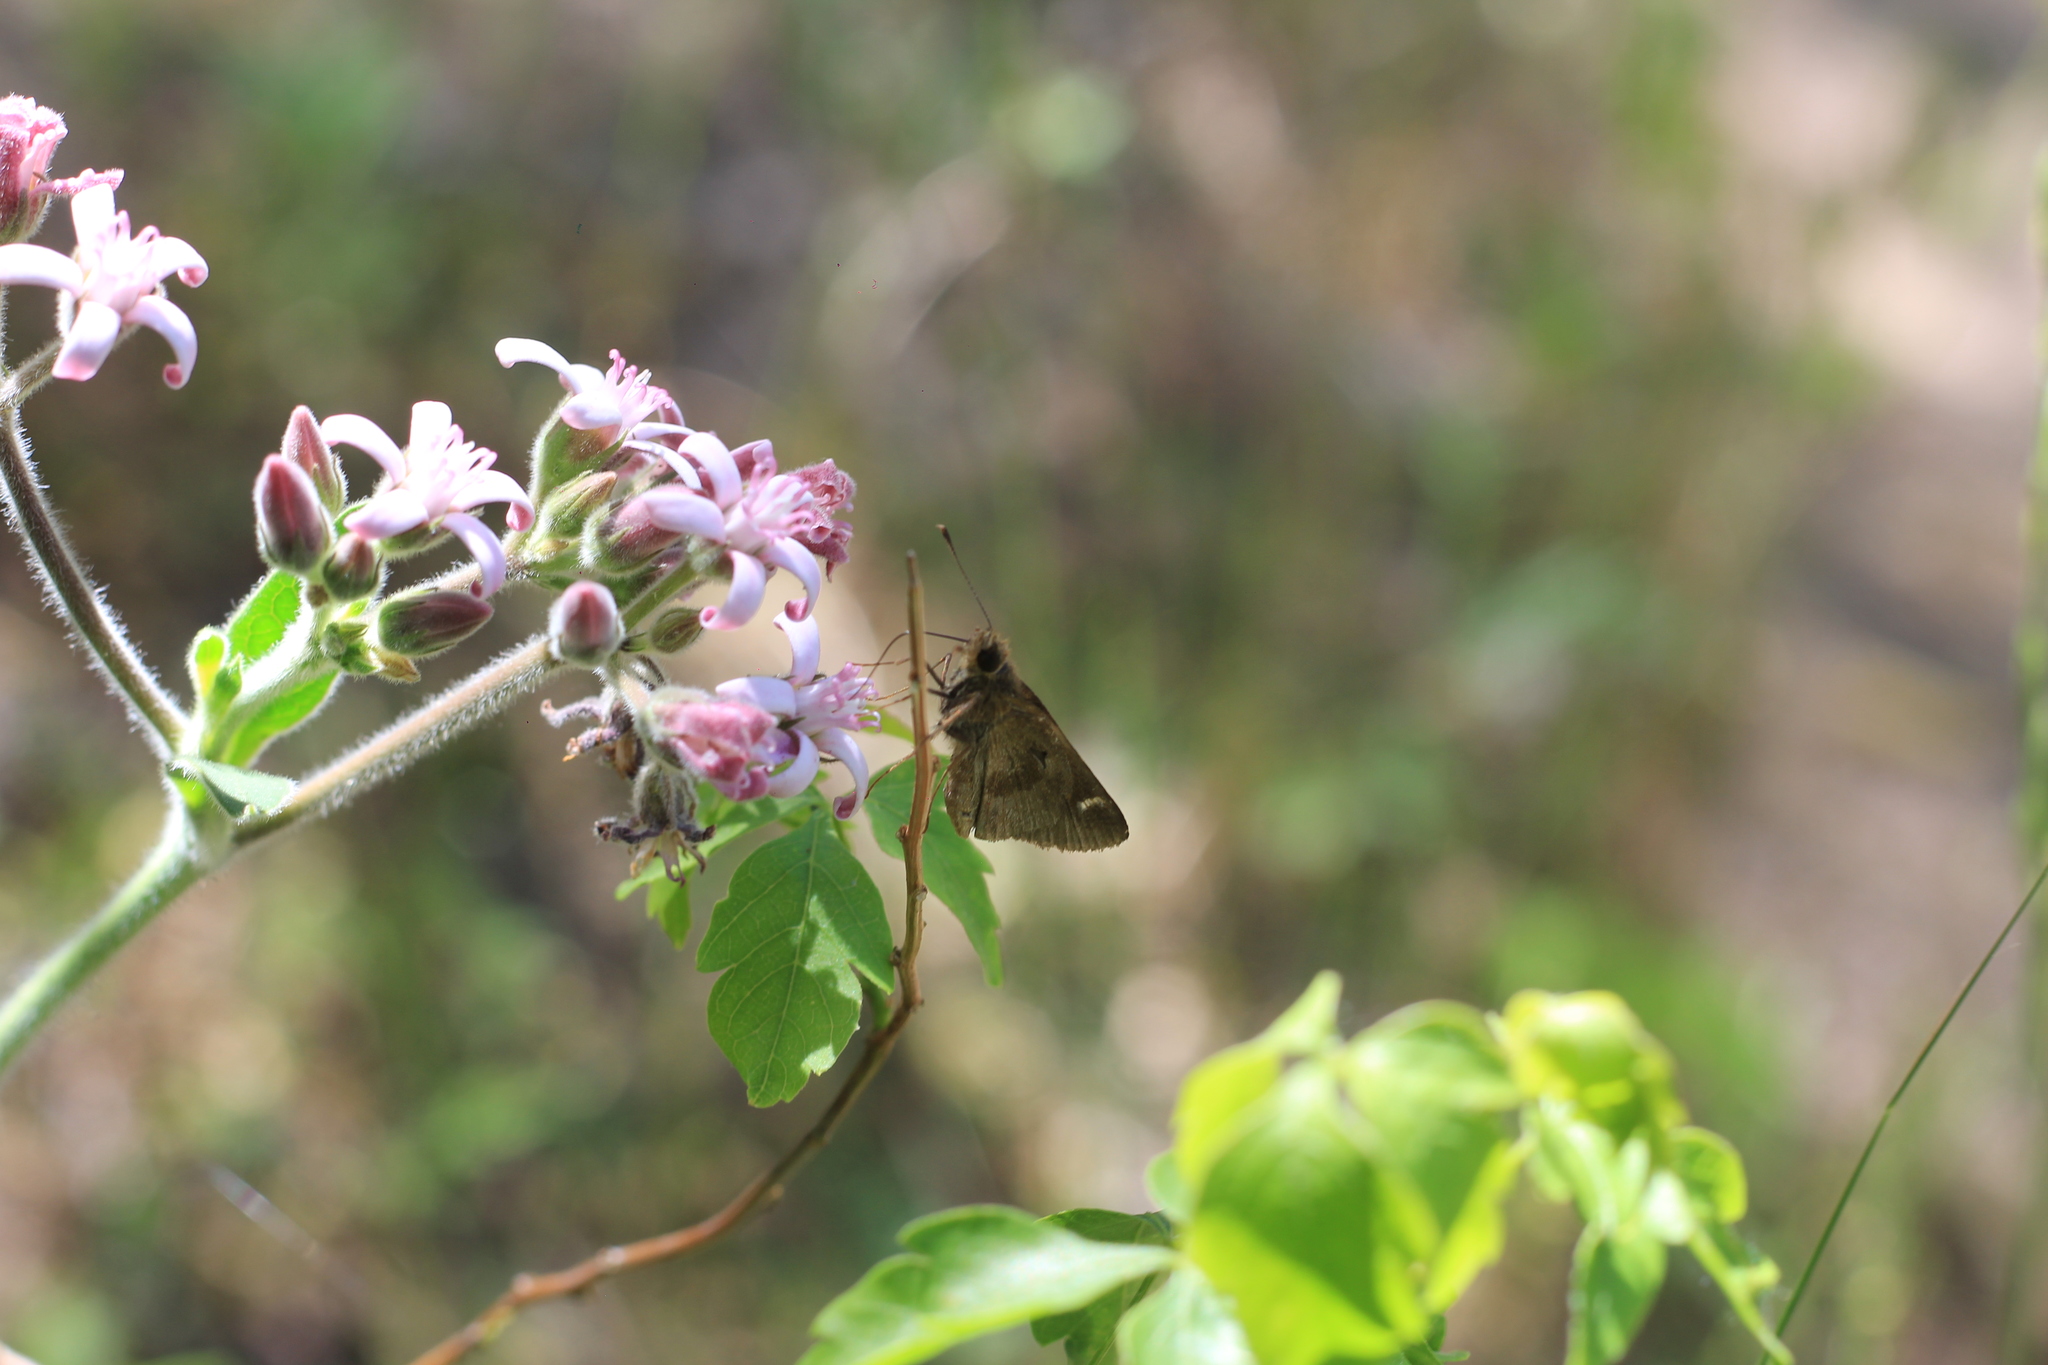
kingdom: Animalia
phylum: Arthropoda
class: Insecta
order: Lepidoptera
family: Hesperiidae
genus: Cymaenes
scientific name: Cymaenes
